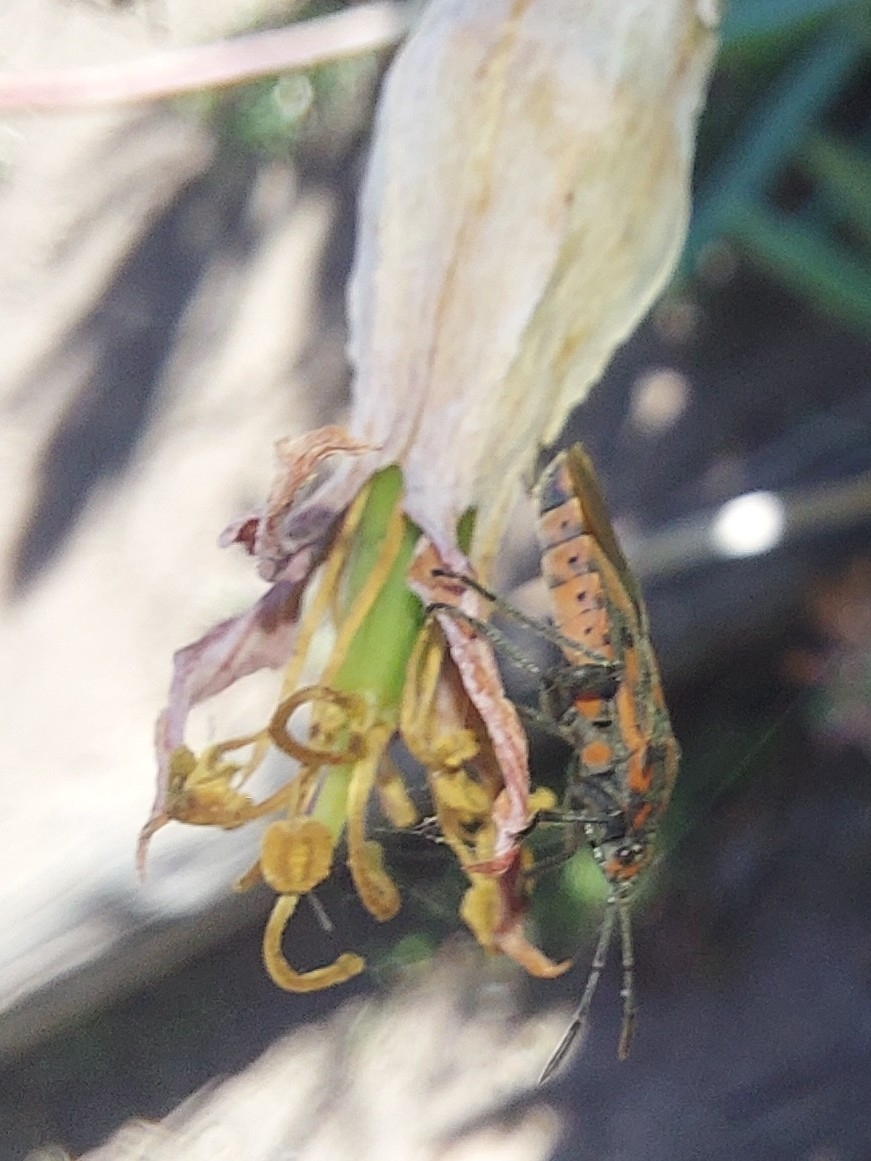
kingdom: Animalia
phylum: Arthropoda
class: Insecta
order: Hemiptera
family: Lygaeidae
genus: Spilostethus
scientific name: Spilostethus furcula
